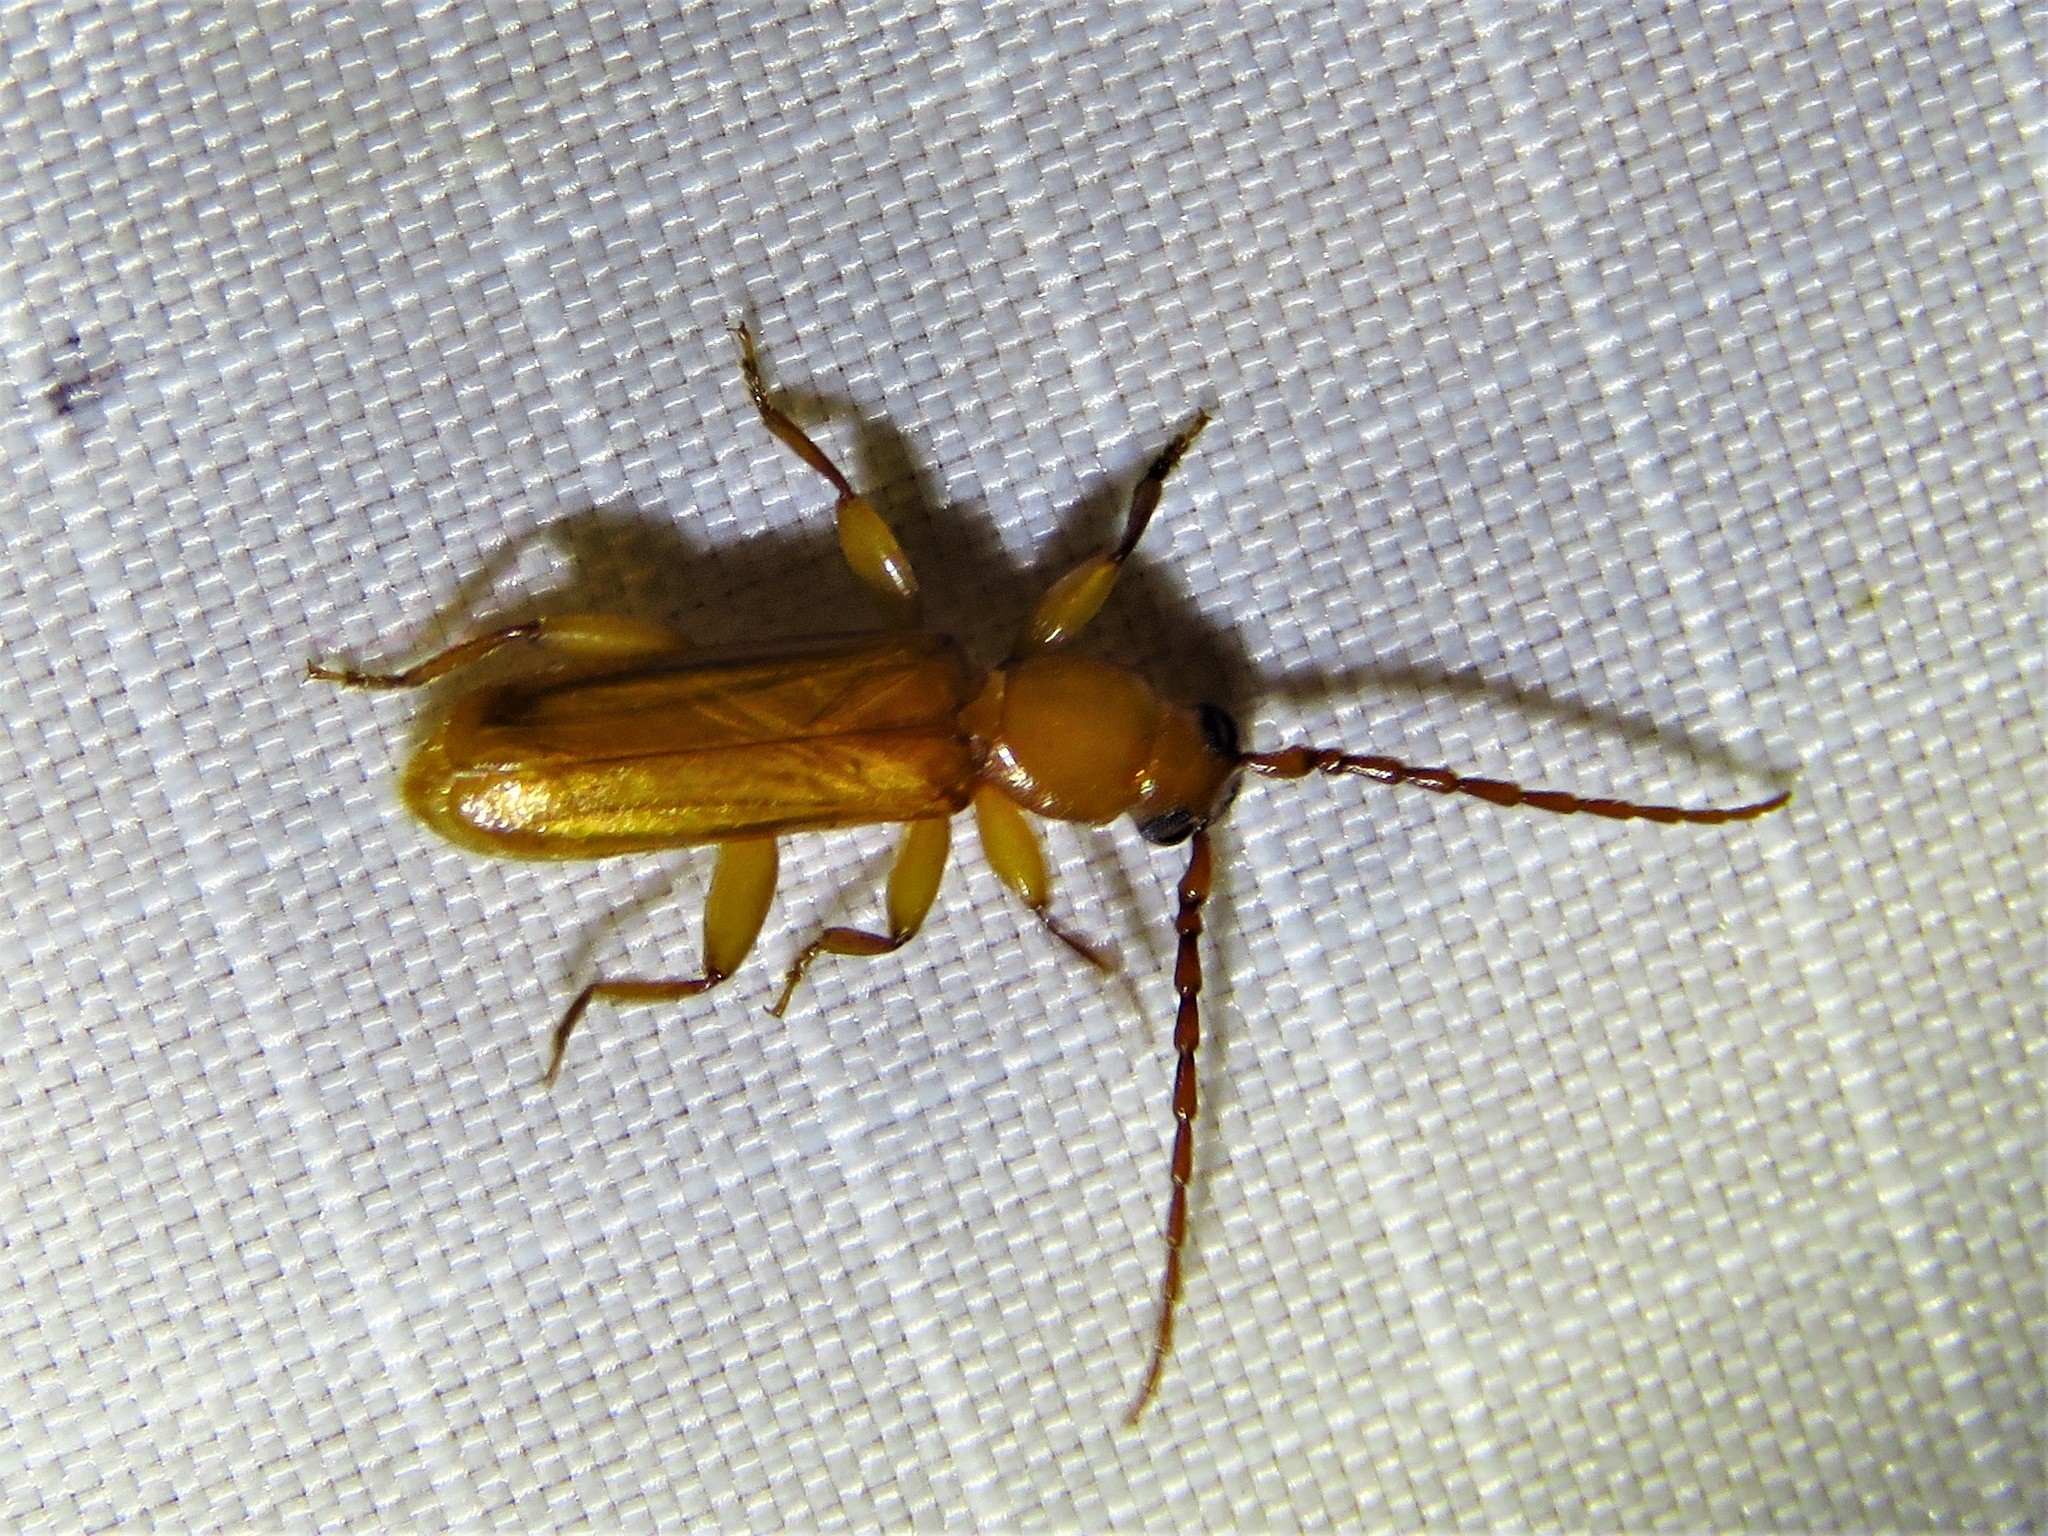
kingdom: Animalia
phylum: Arthropoda
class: Insecta
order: Coleoptera
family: Cerambycidae
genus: Smodicum
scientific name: Smodicum cucujiforme
